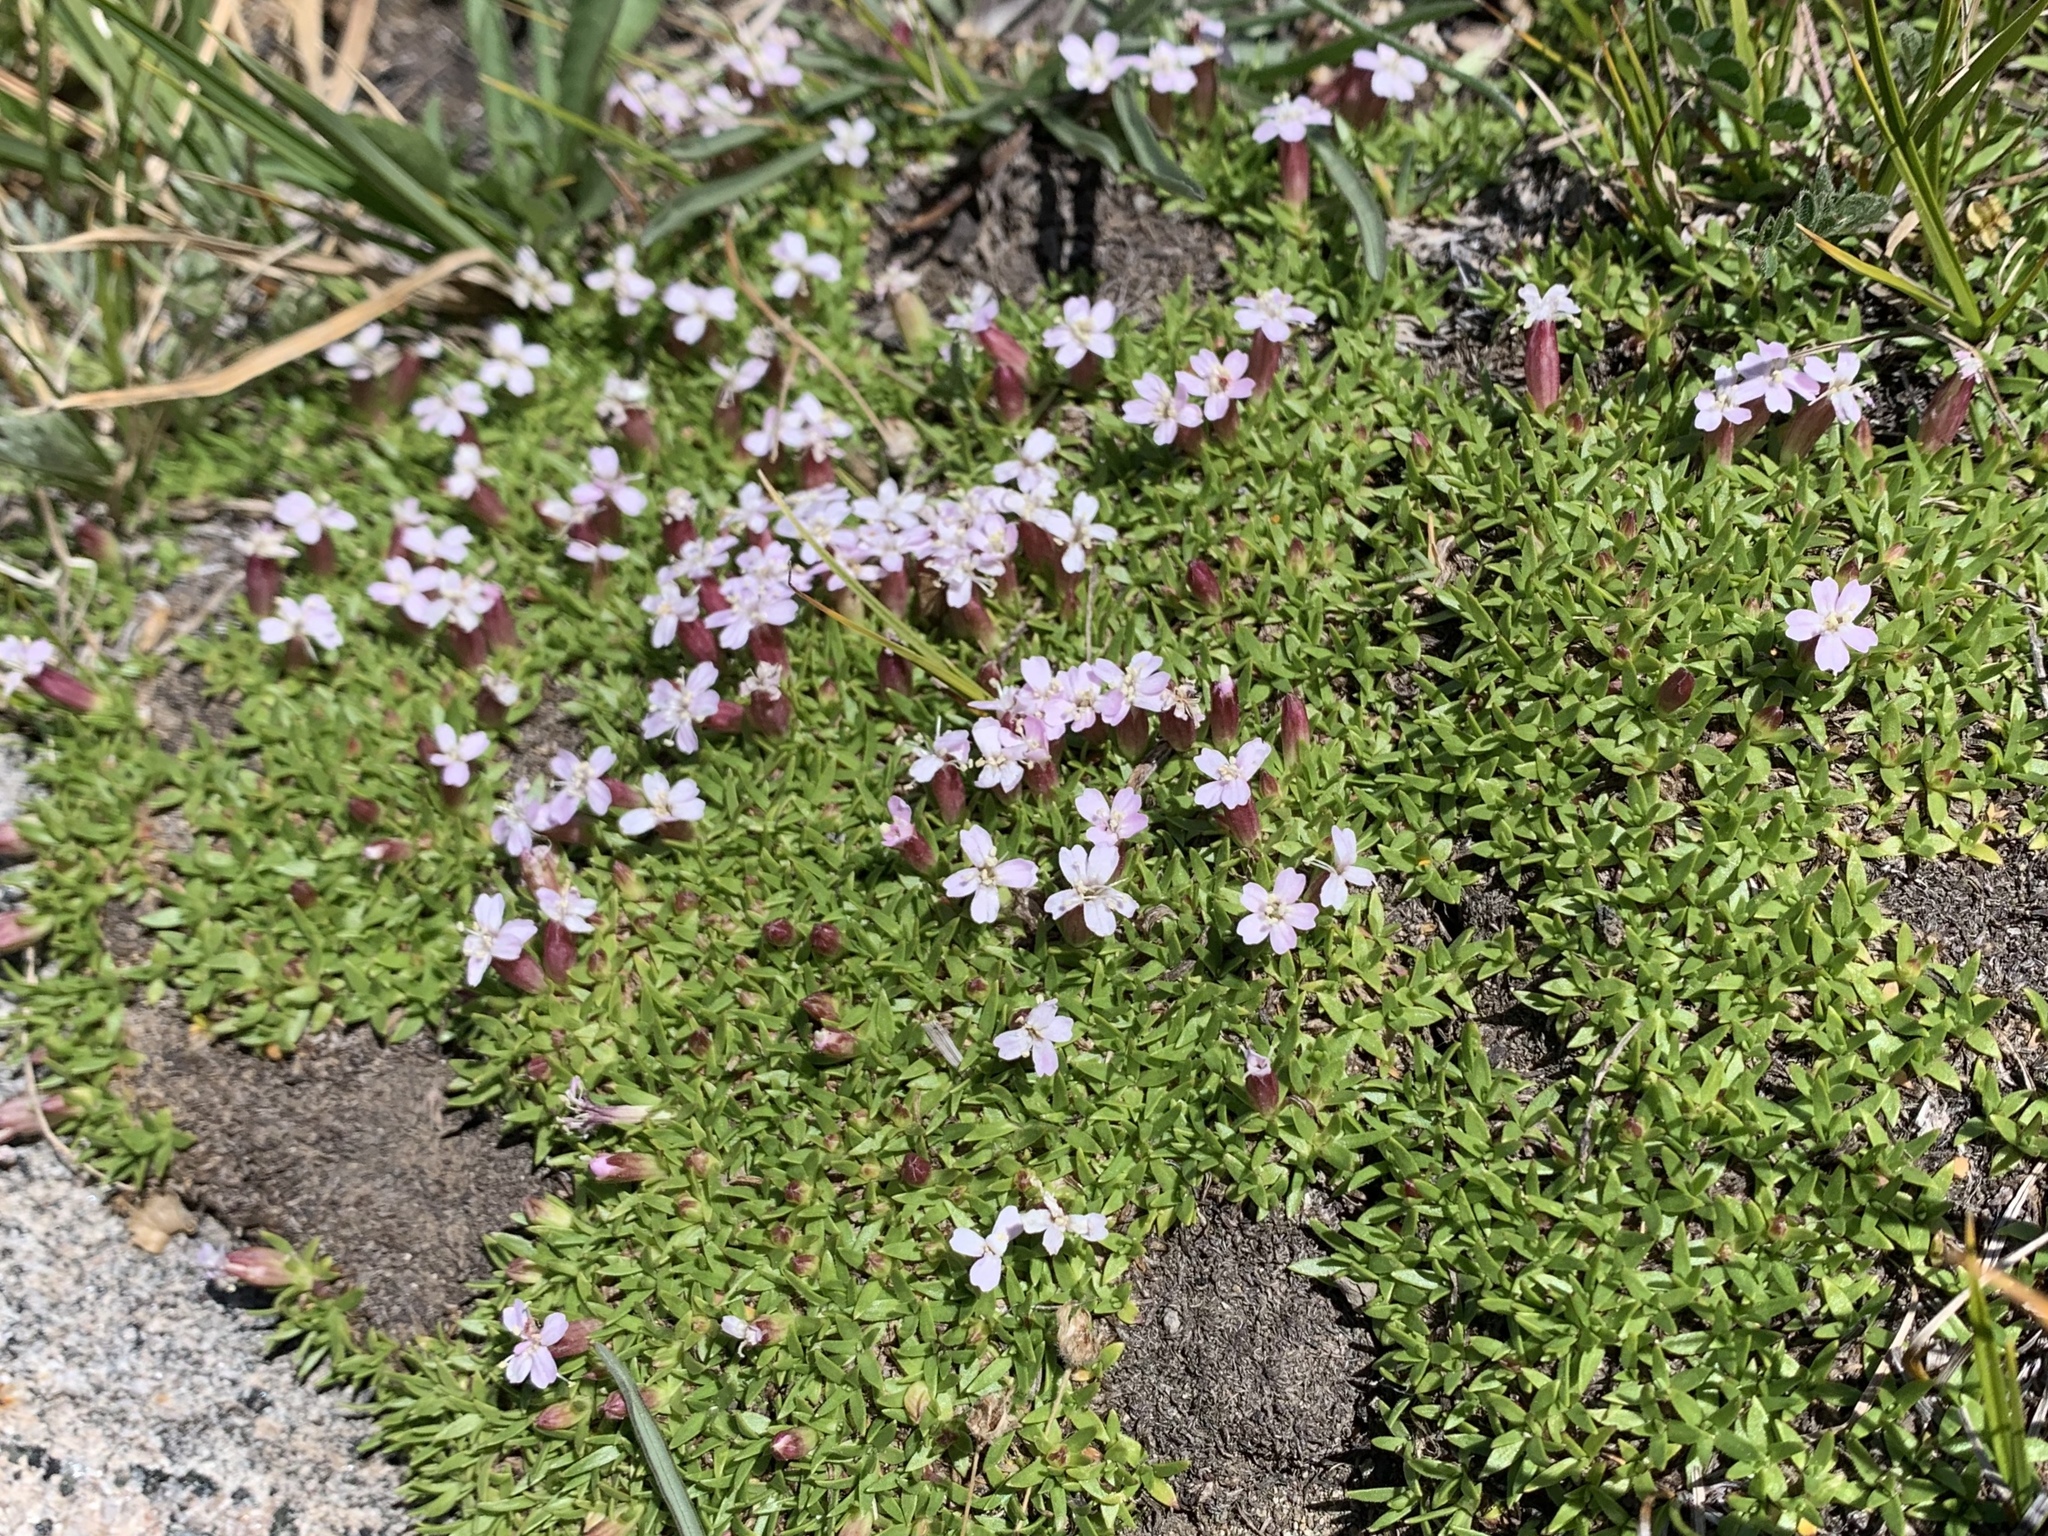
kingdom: Plantae
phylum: Tracheophyta
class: Magnoliopsida
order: Caryophyllales
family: Caryophyllaceae
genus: Silene
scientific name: Silene acaulis
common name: Moss campion
